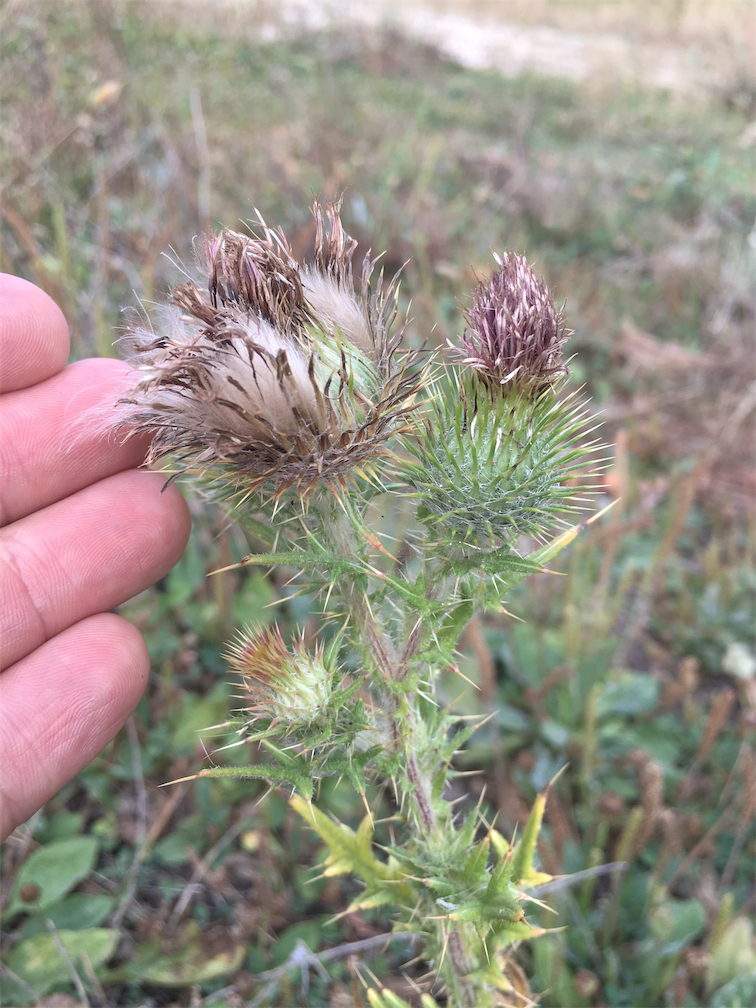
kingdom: Plantae
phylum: Tracheophyta
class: Magnoliopsida
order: Asterales
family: Asteraceae
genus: Cirsium
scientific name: Cirsium vulgare
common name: Bull thistle
